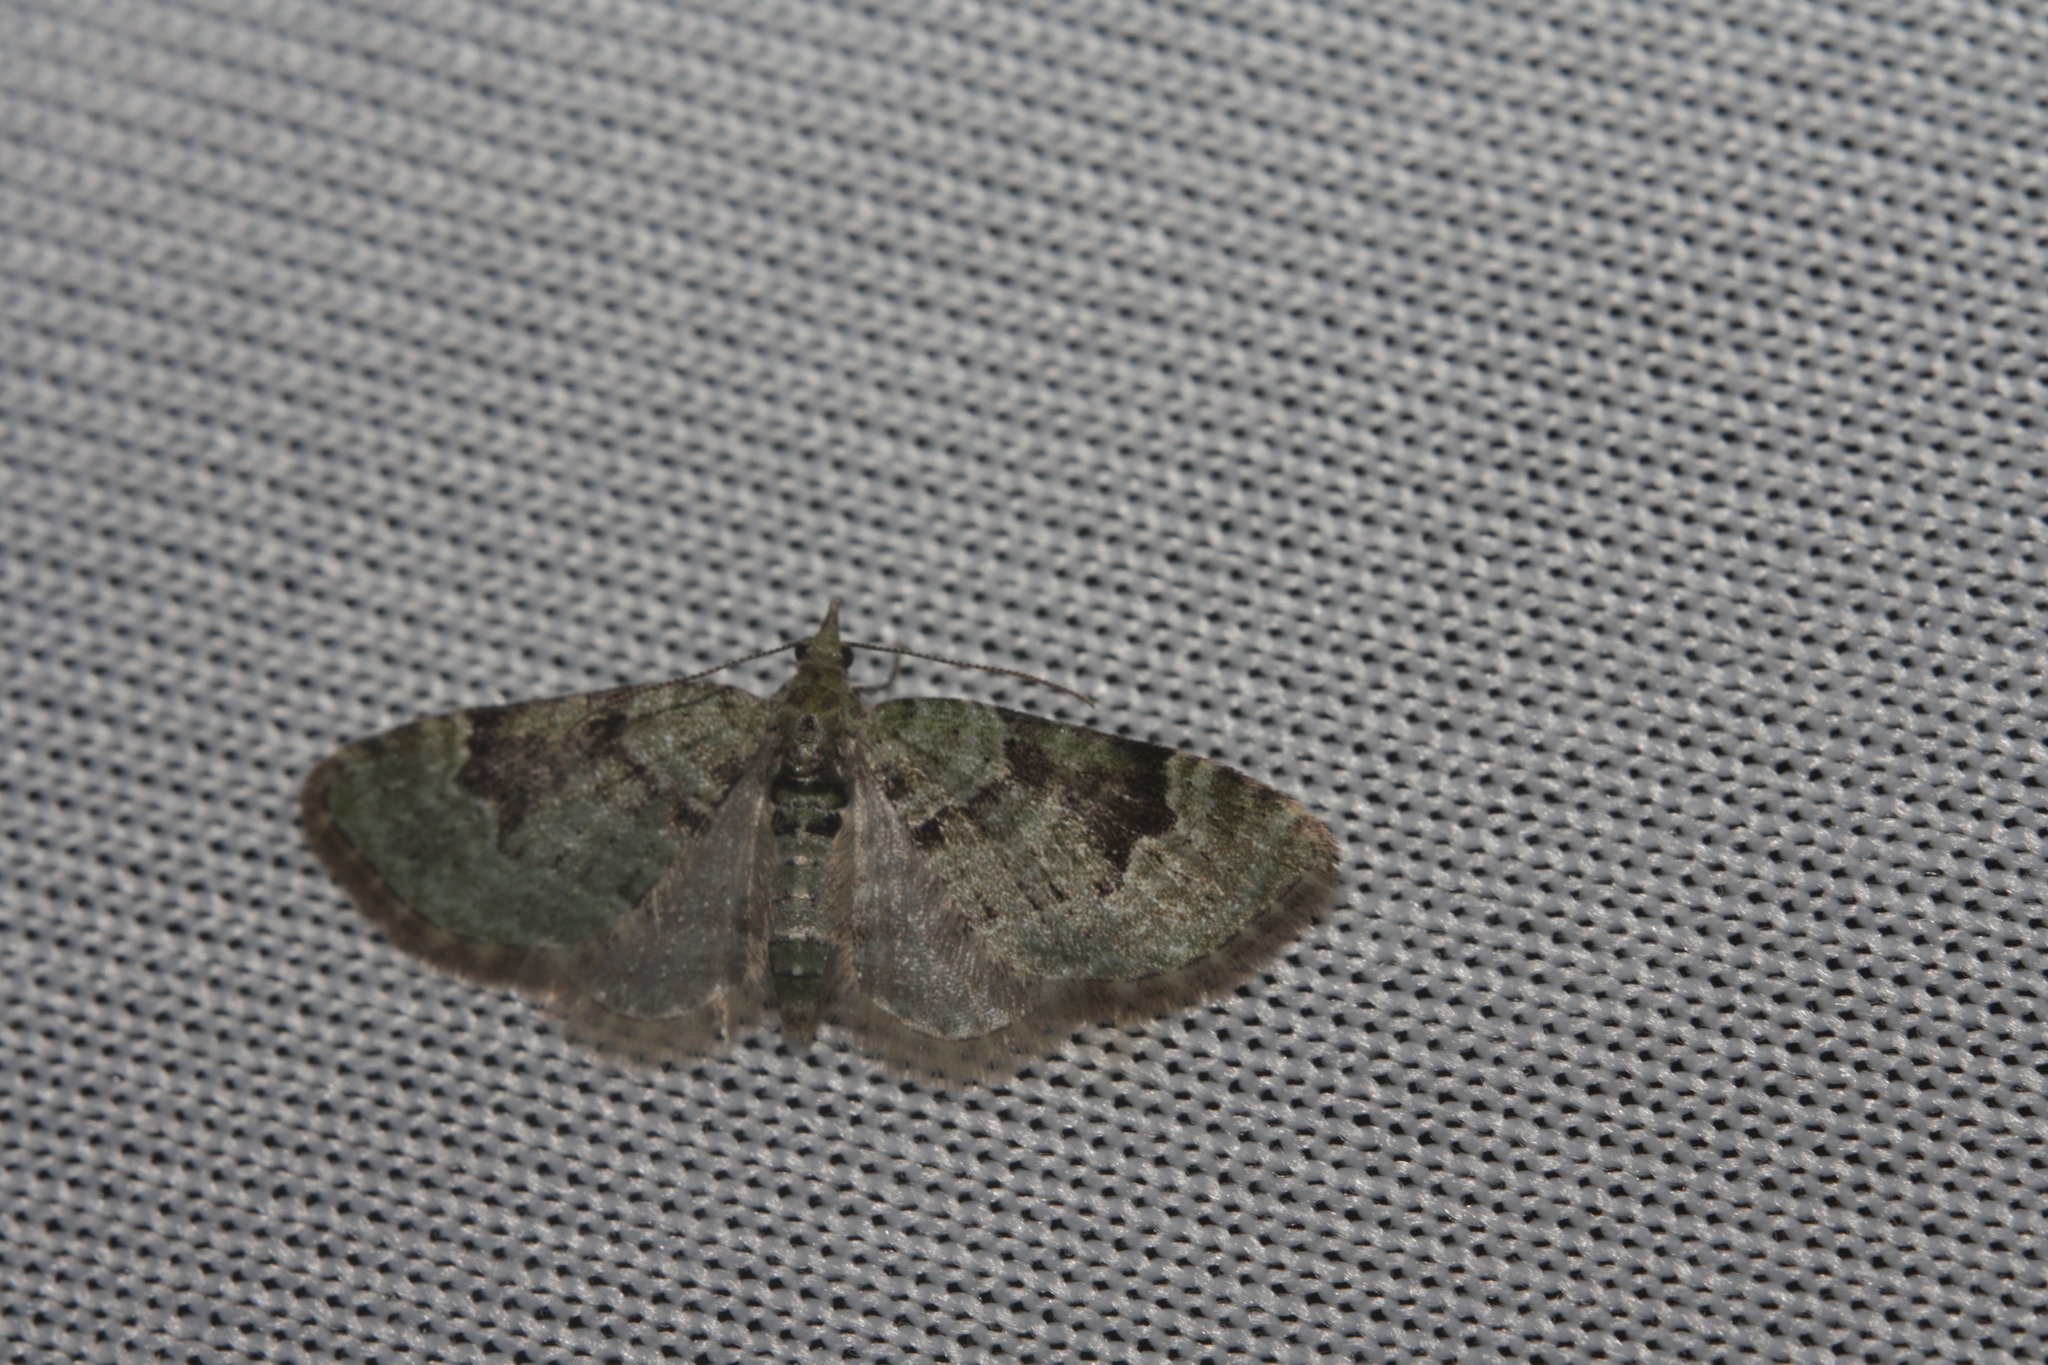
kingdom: Animalia
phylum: Arthropoda
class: Insecta
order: Lepidoptera
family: Geometridae
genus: Chloroclystis
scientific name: Chloroclystis v-ata
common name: V-pug
